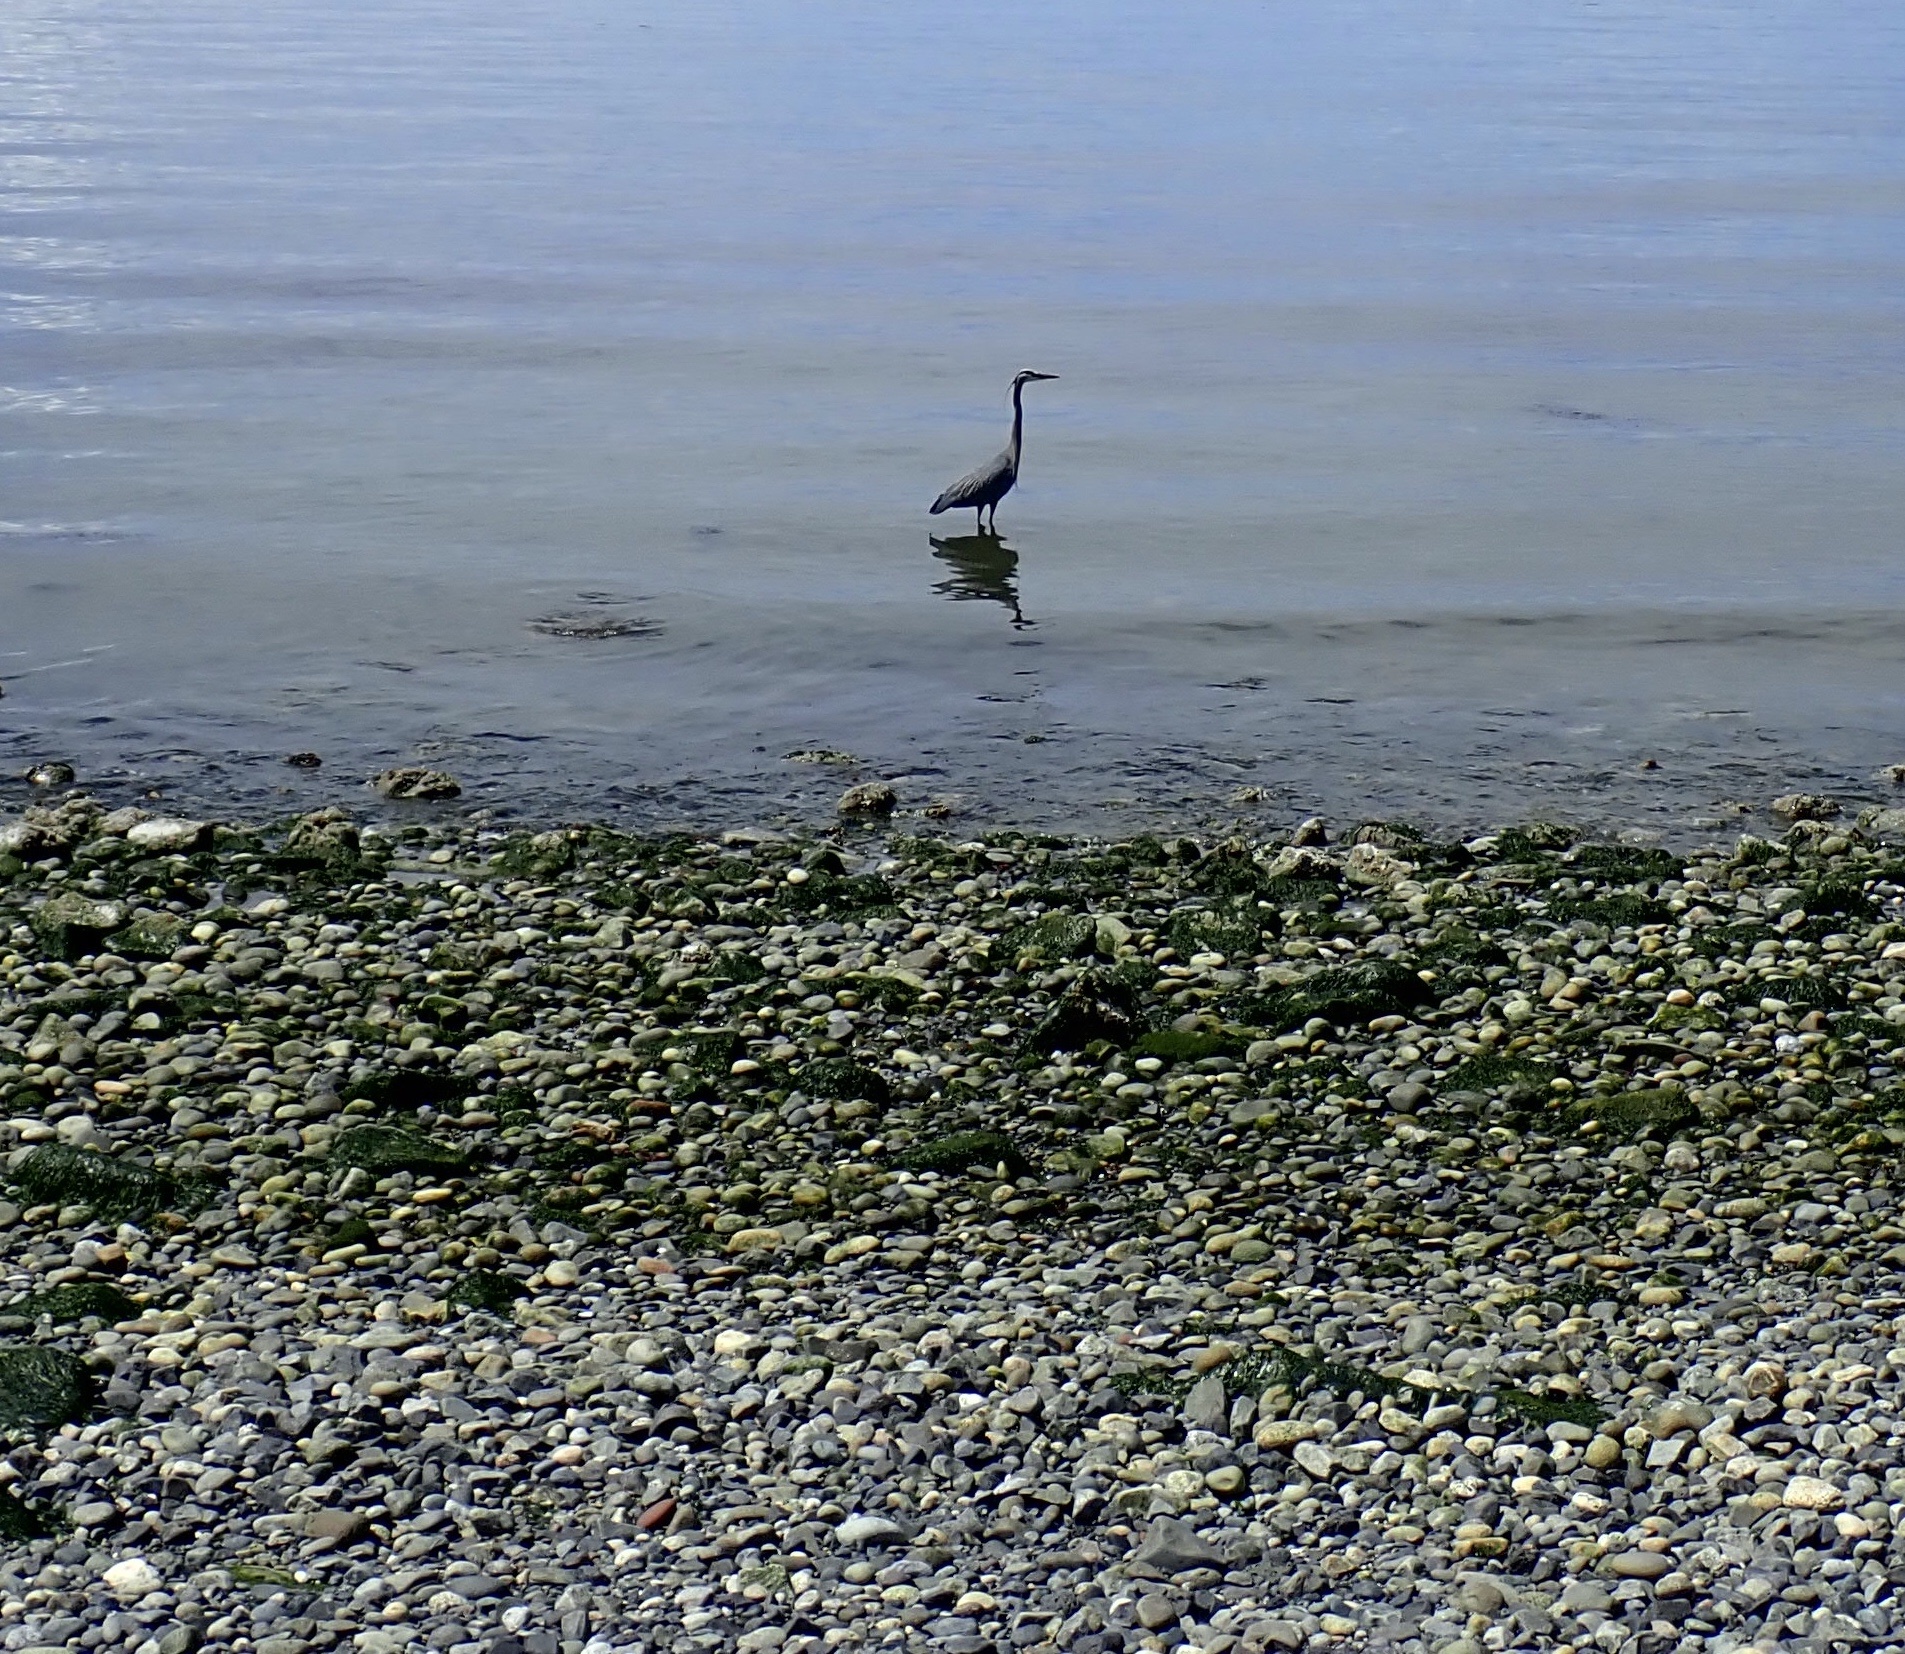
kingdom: Animalia
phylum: Chordata
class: Aves
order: Pelecaniformes
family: Ardeidae
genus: Ardea
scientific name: Ardea herodias
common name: Great blue heron
